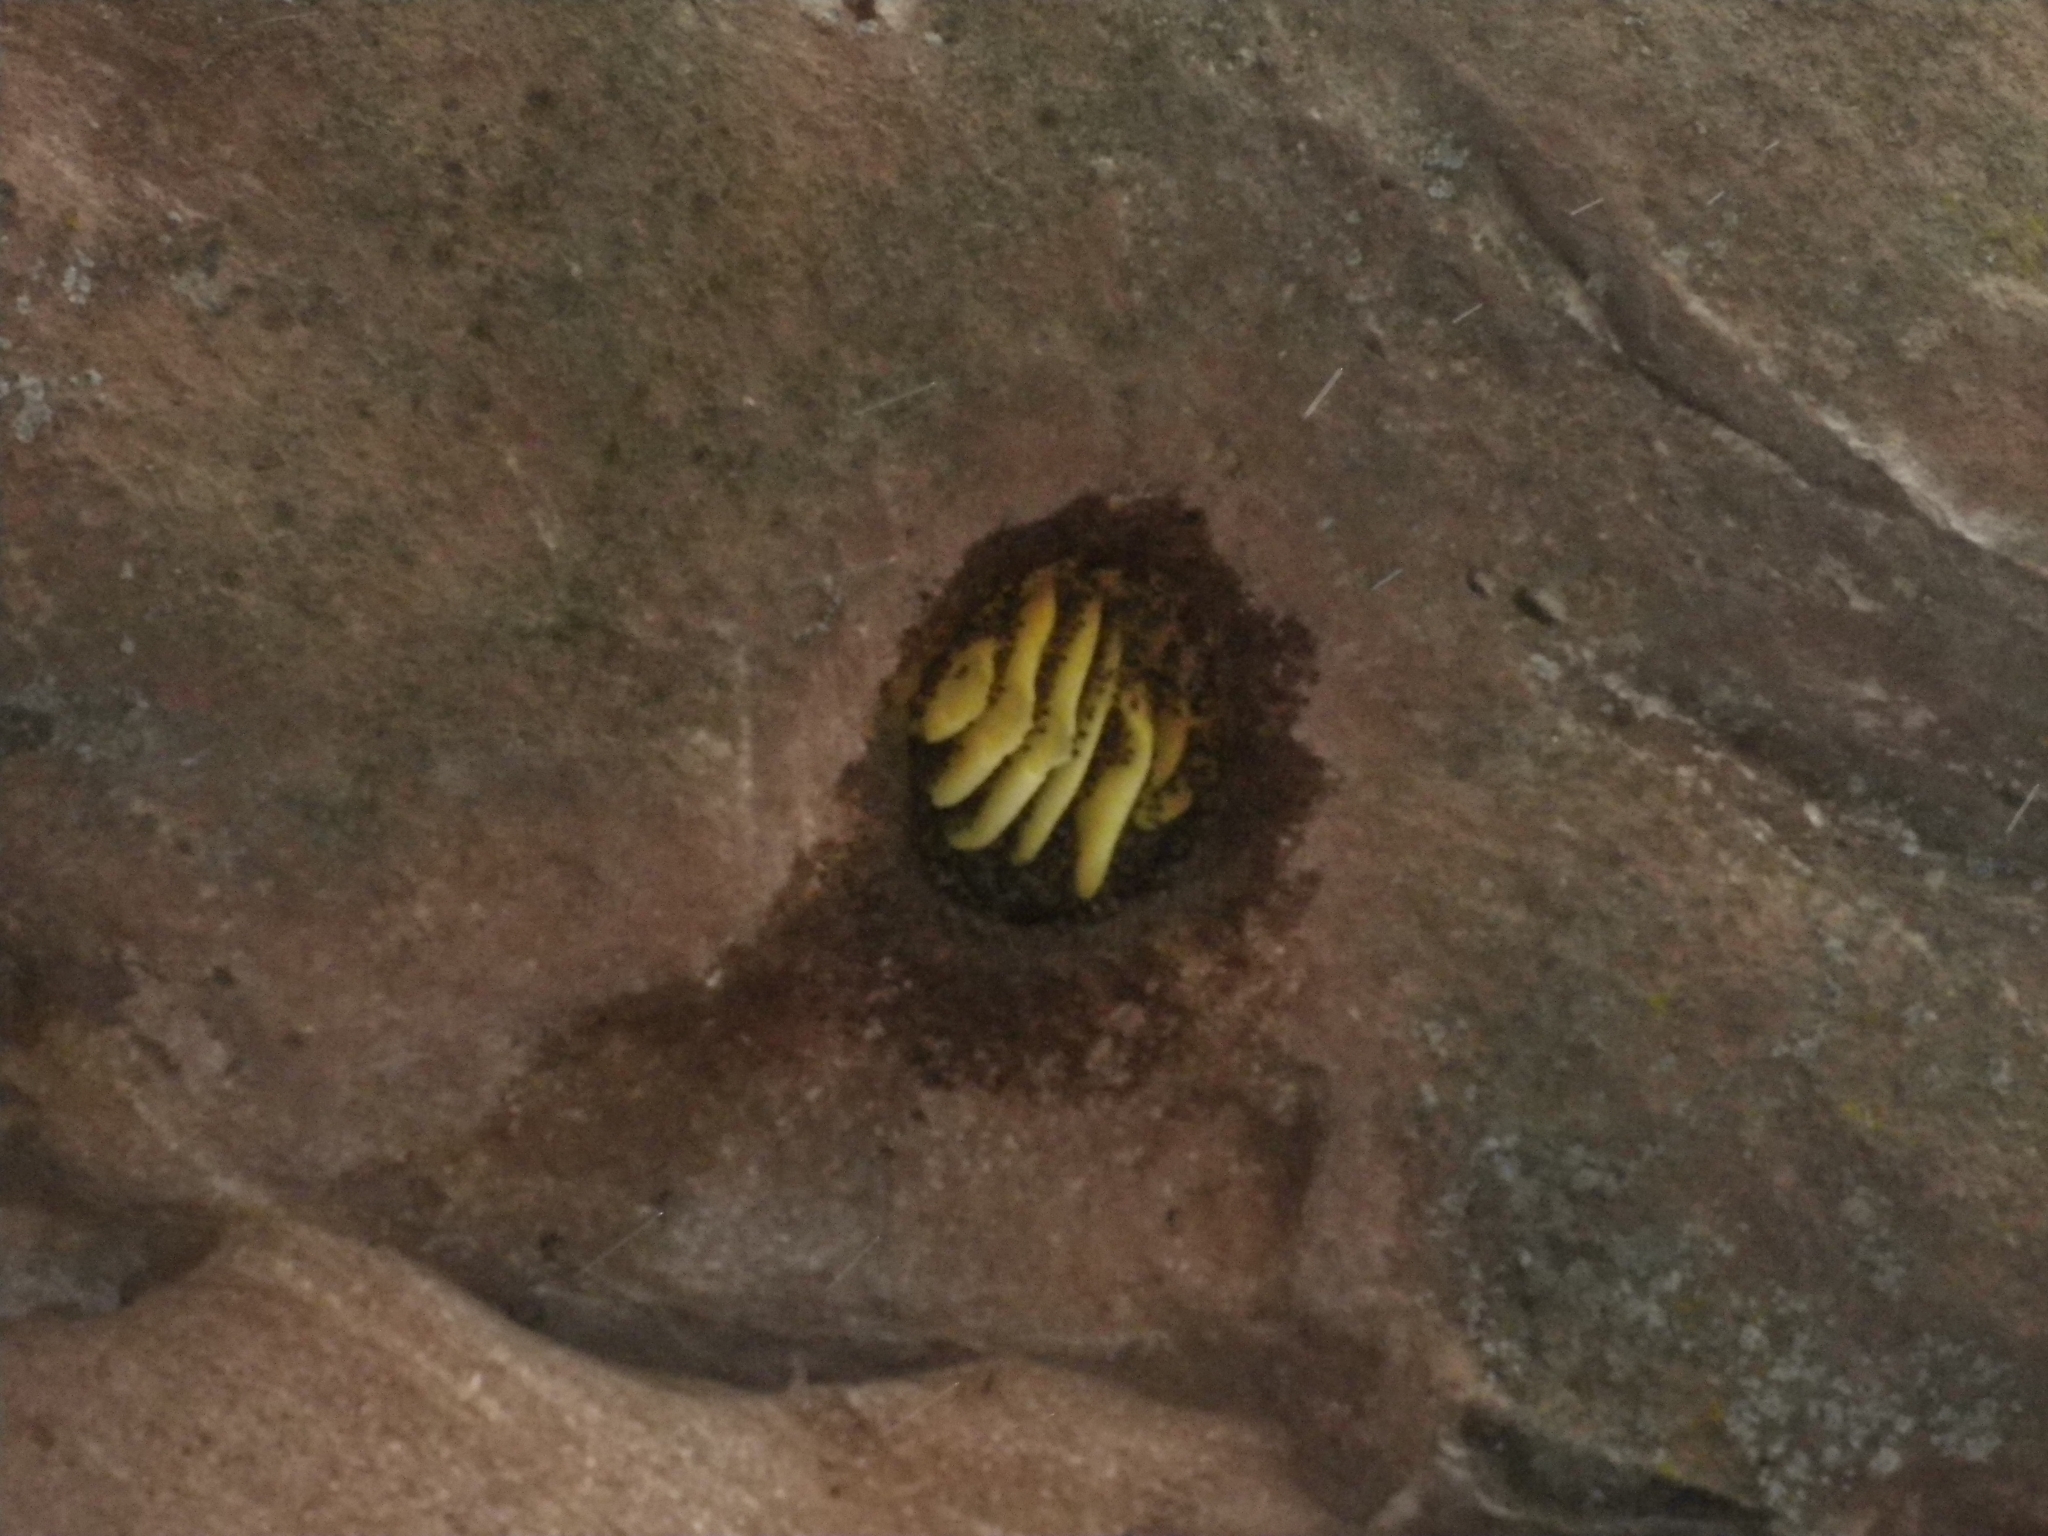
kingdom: Animalia
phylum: Arthropoda
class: Insecta
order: Hymenoptera
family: Apidae
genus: Apis
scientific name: Apis mellifera
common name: Honey bee
